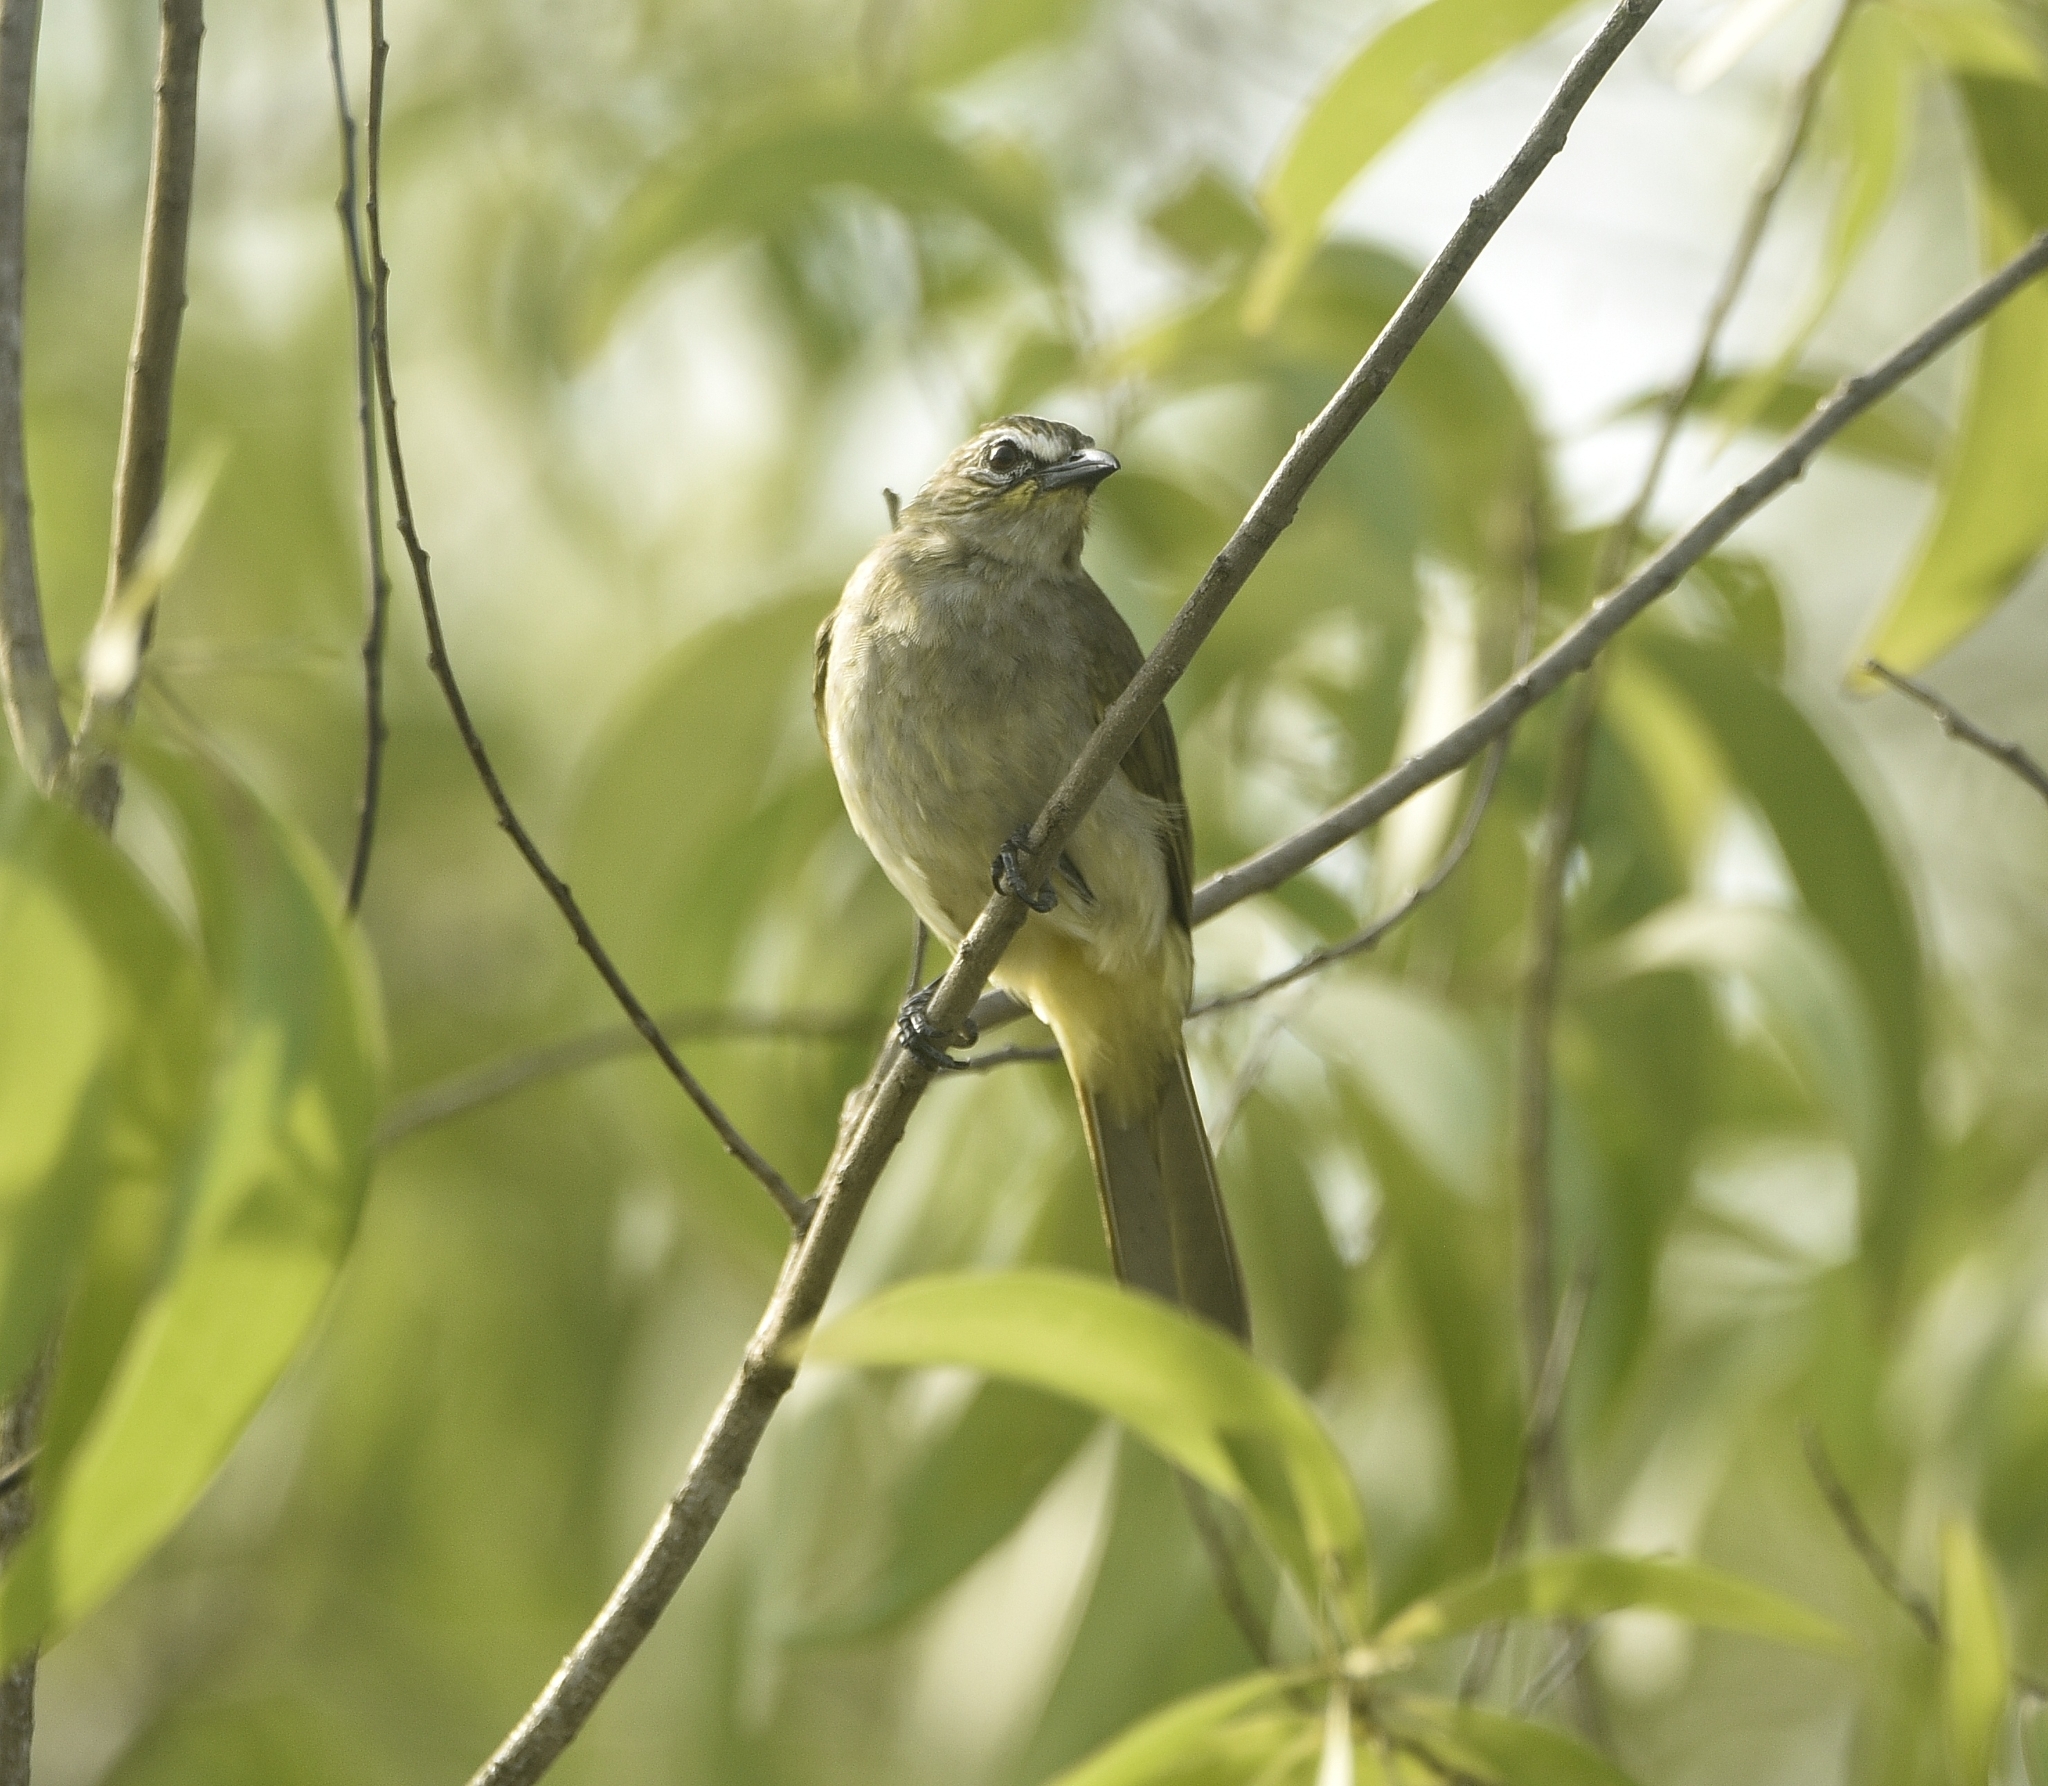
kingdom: Animalia
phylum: Chordata
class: Aves
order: Passeriformes
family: Pycnonotidae
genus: Pycnonotus
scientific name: Pycnonotus luteolus
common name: White-browed bulbul
